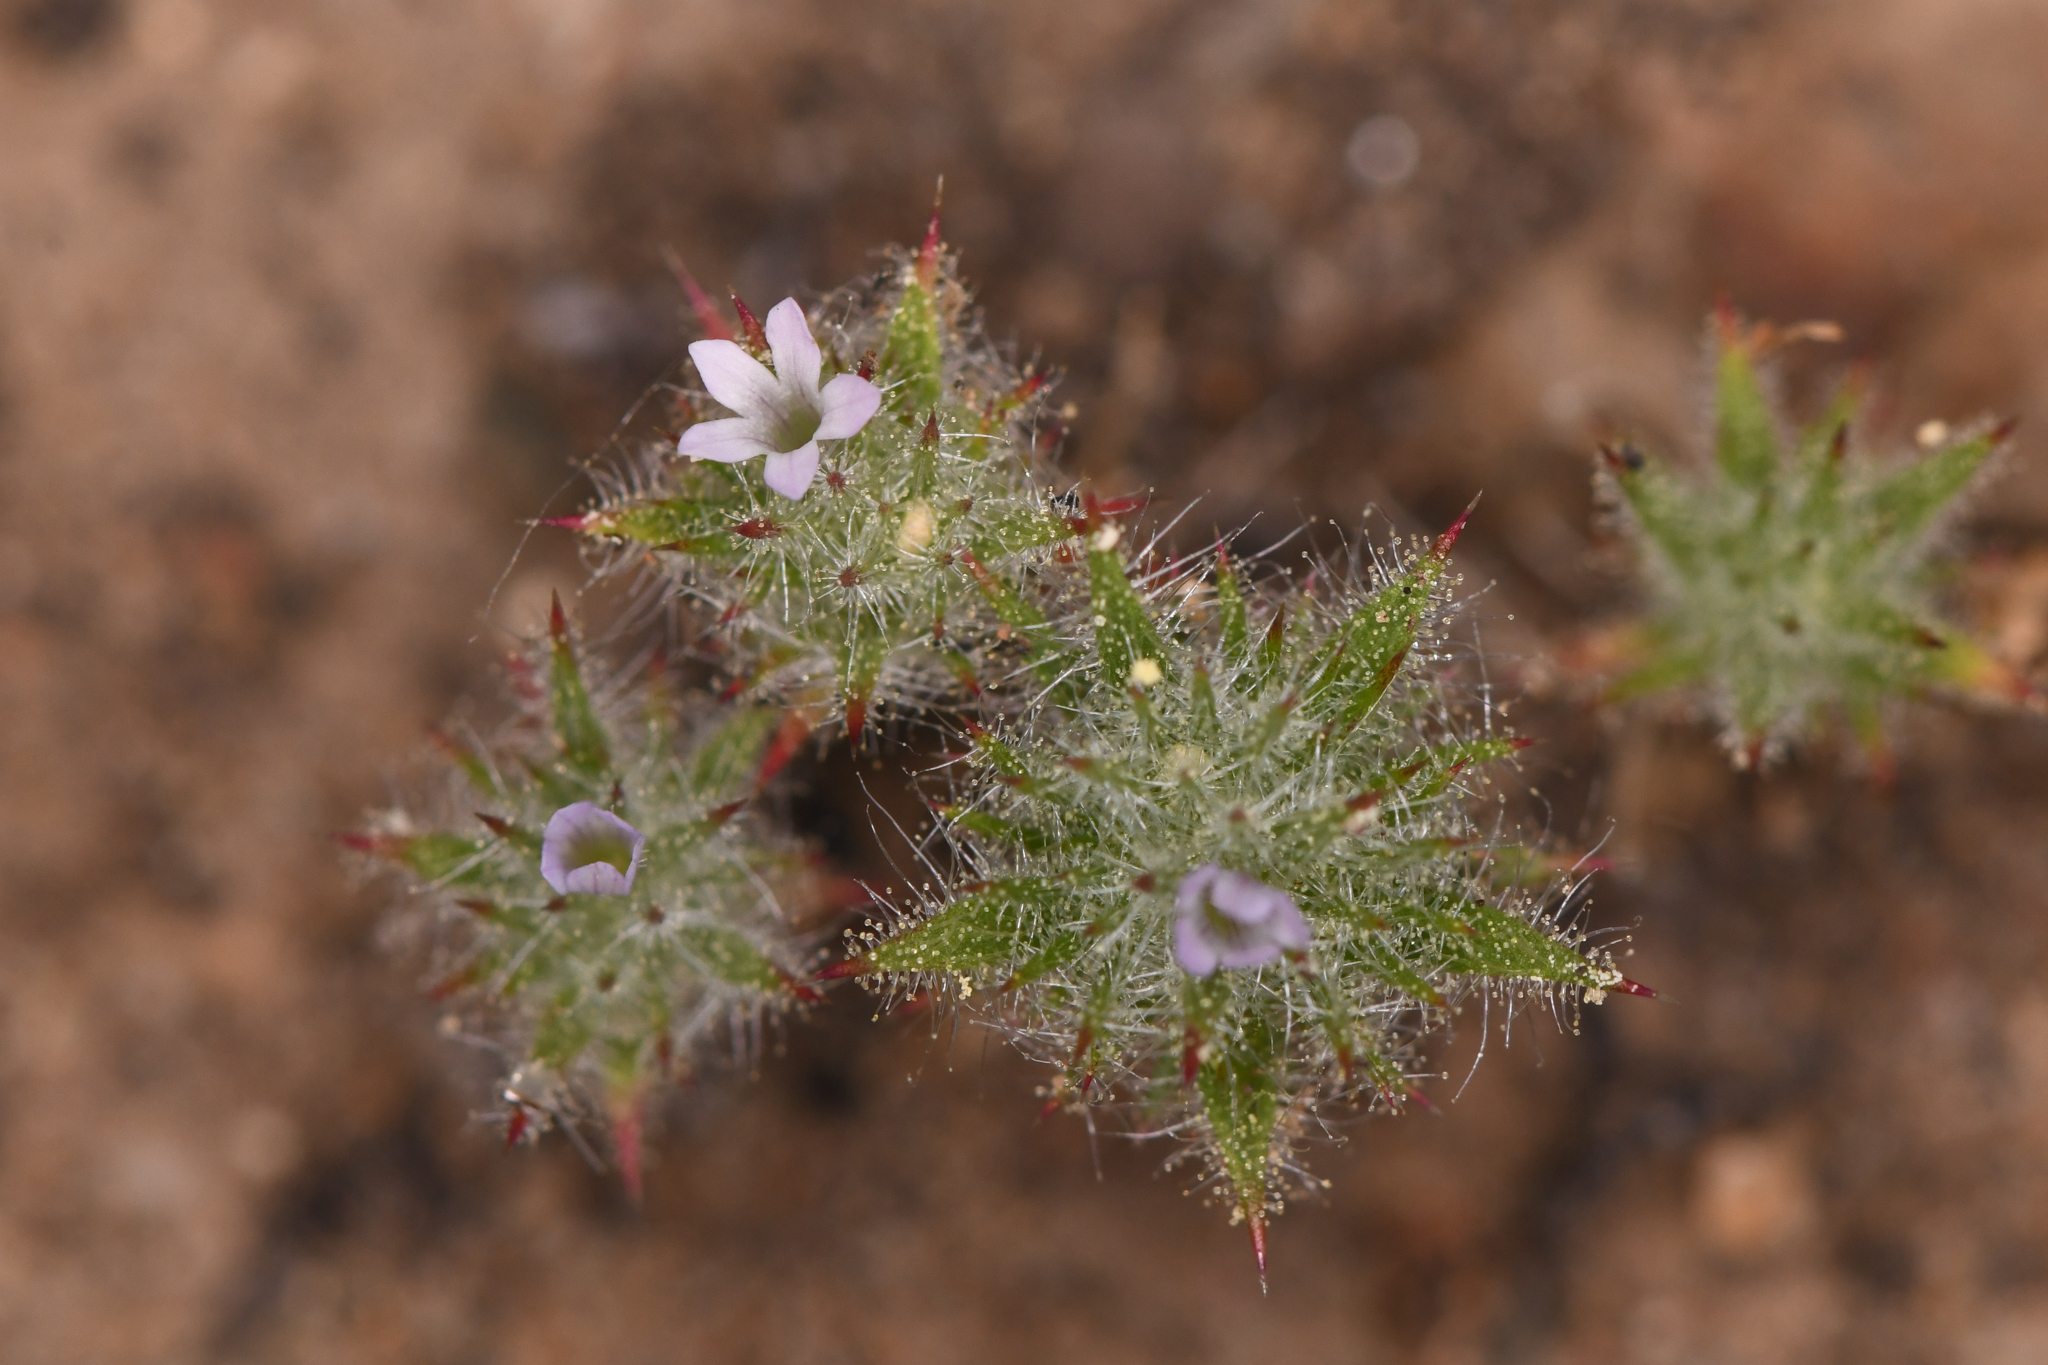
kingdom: Plantae
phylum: Tracheophyta
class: Magnoliopsida
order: Ericales
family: Polemoniaceae
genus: Navarretia
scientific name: Navarretia mellita
